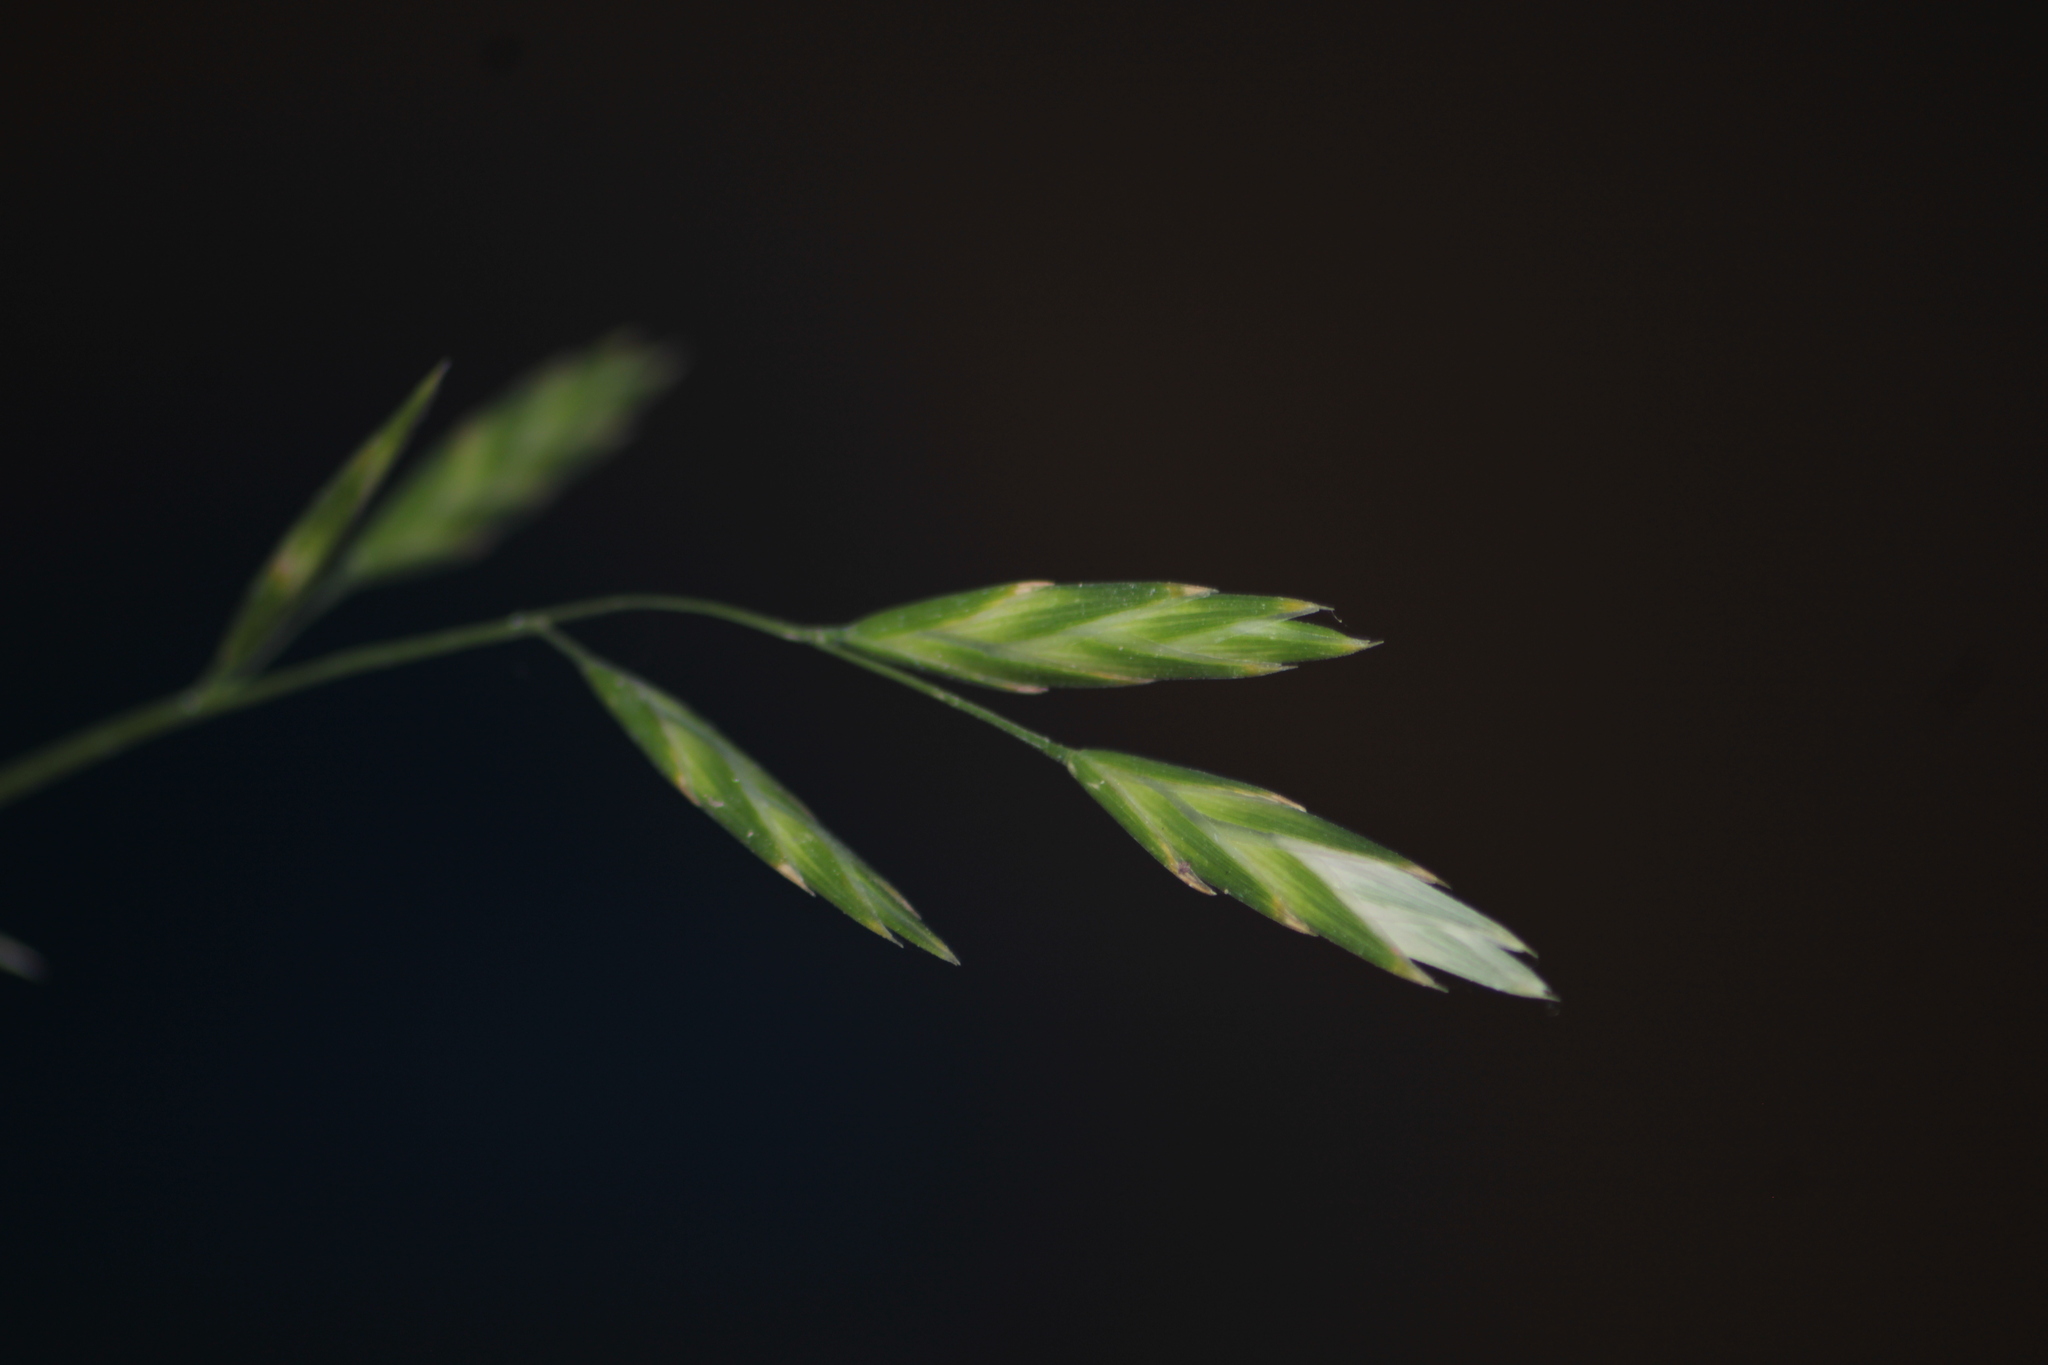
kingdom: Plantae
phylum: Tracheophyta
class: Liliopsida
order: Poales
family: Poaceae
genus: Bromus
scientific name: Bromus catharticus
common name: Rescuegrass
